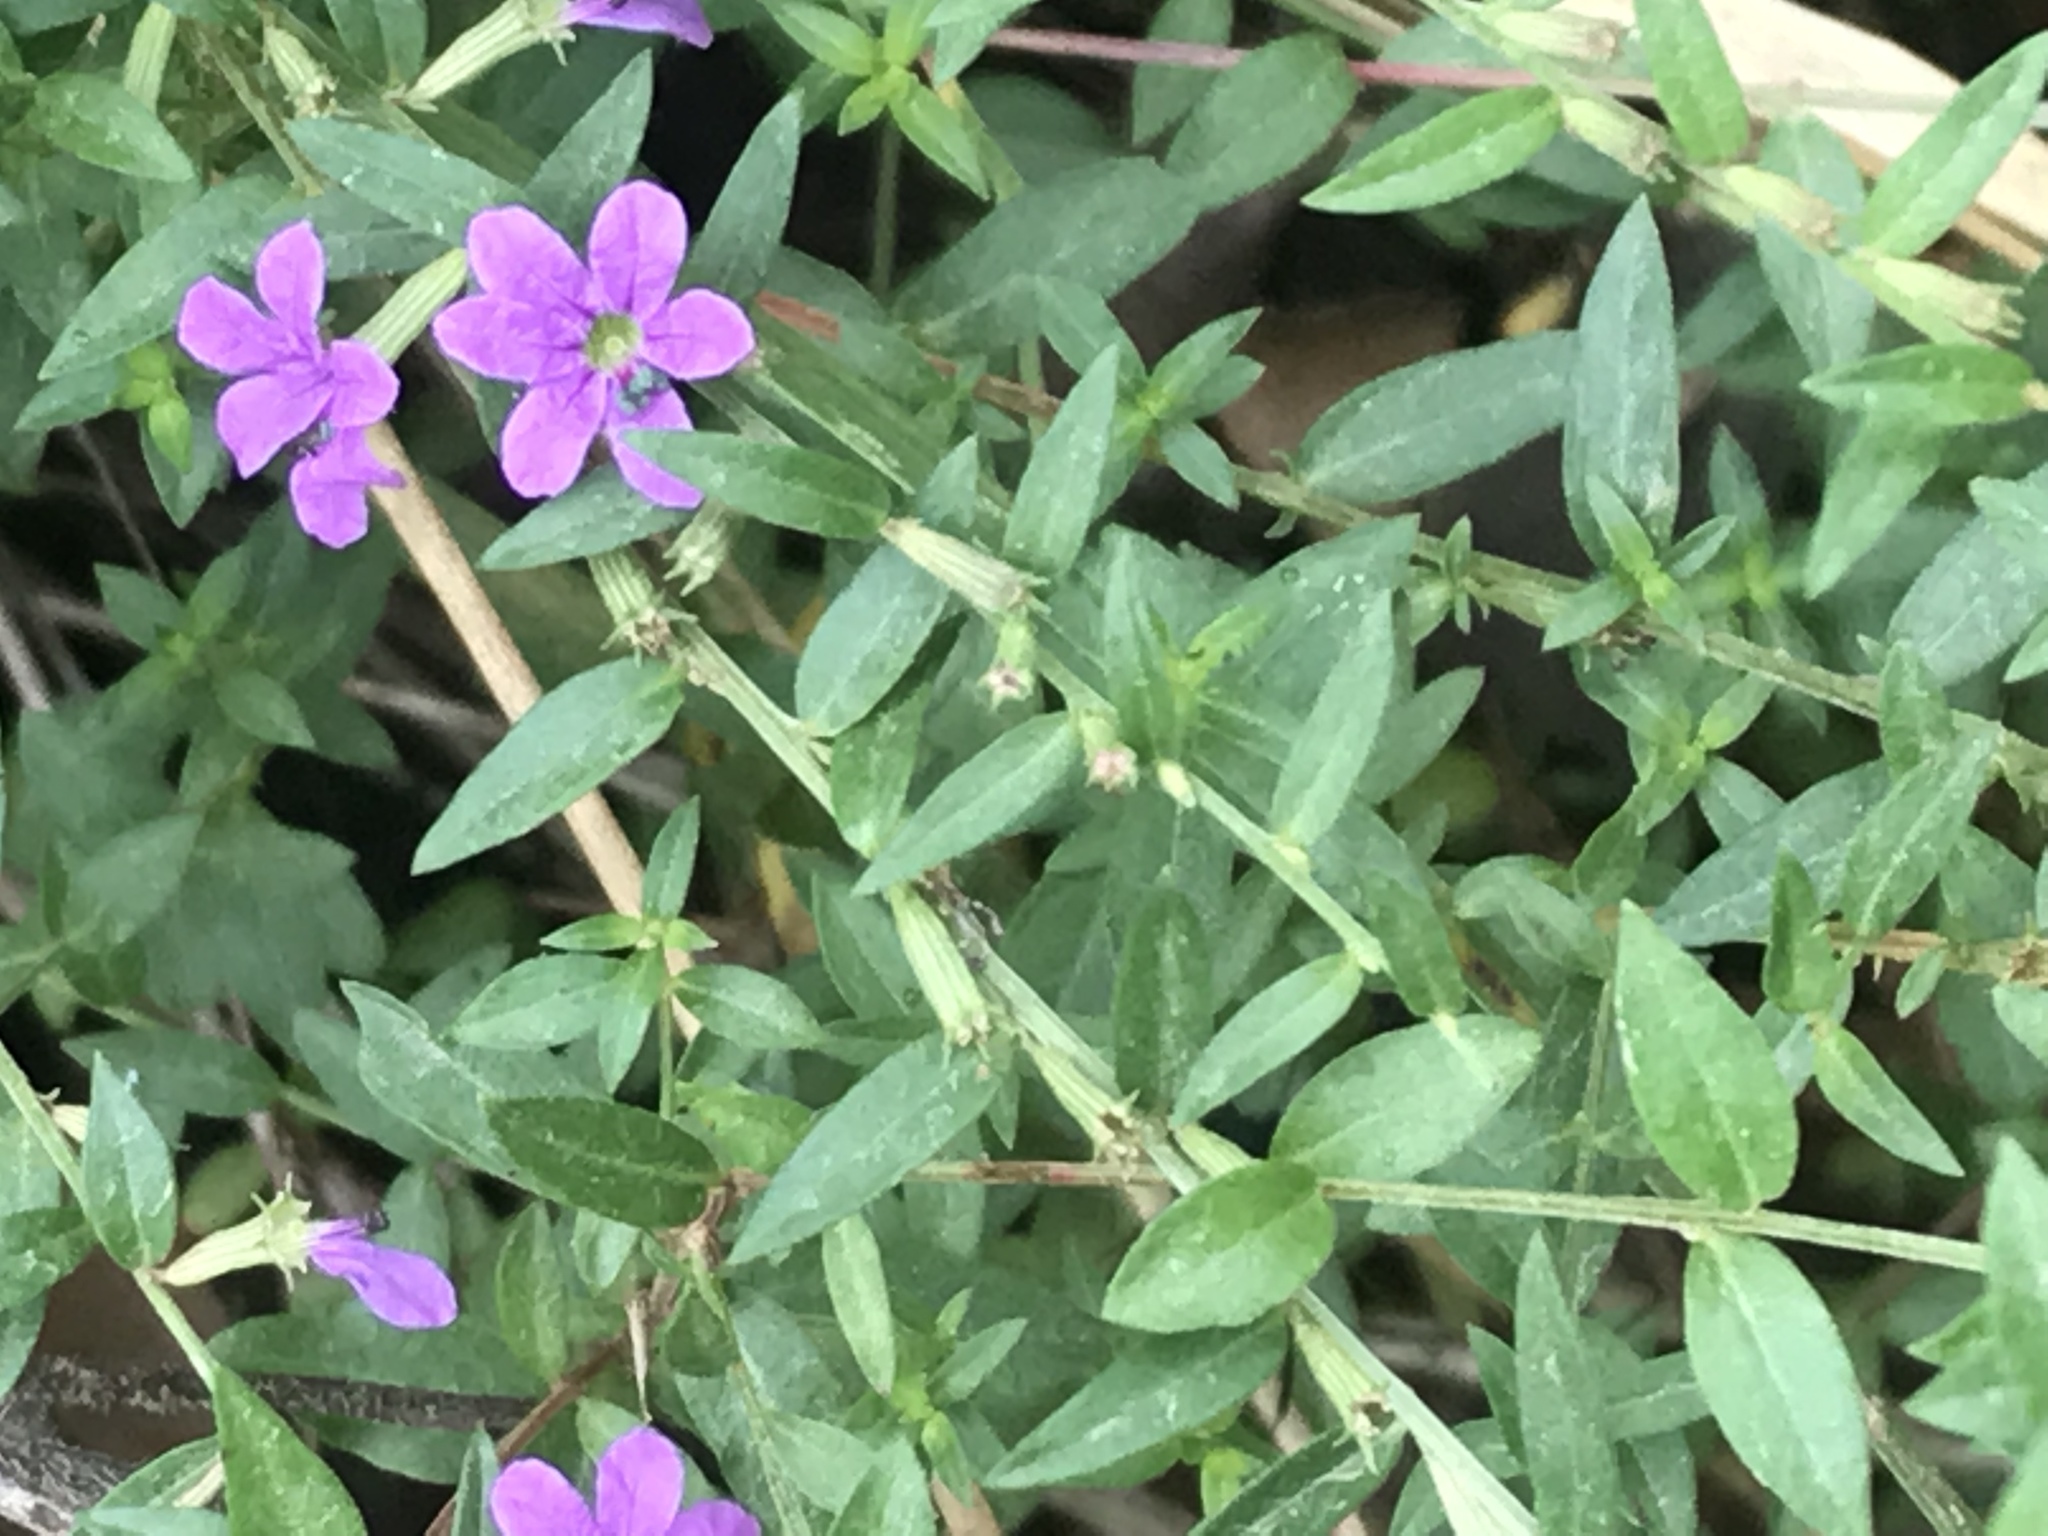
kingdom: Plantae
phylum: Tracheophyta
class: Magnoliopsida
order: Myrtales
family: Lythraceae
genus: Lythrum
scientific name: Lythrum alatum
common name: Winged loosestrife
